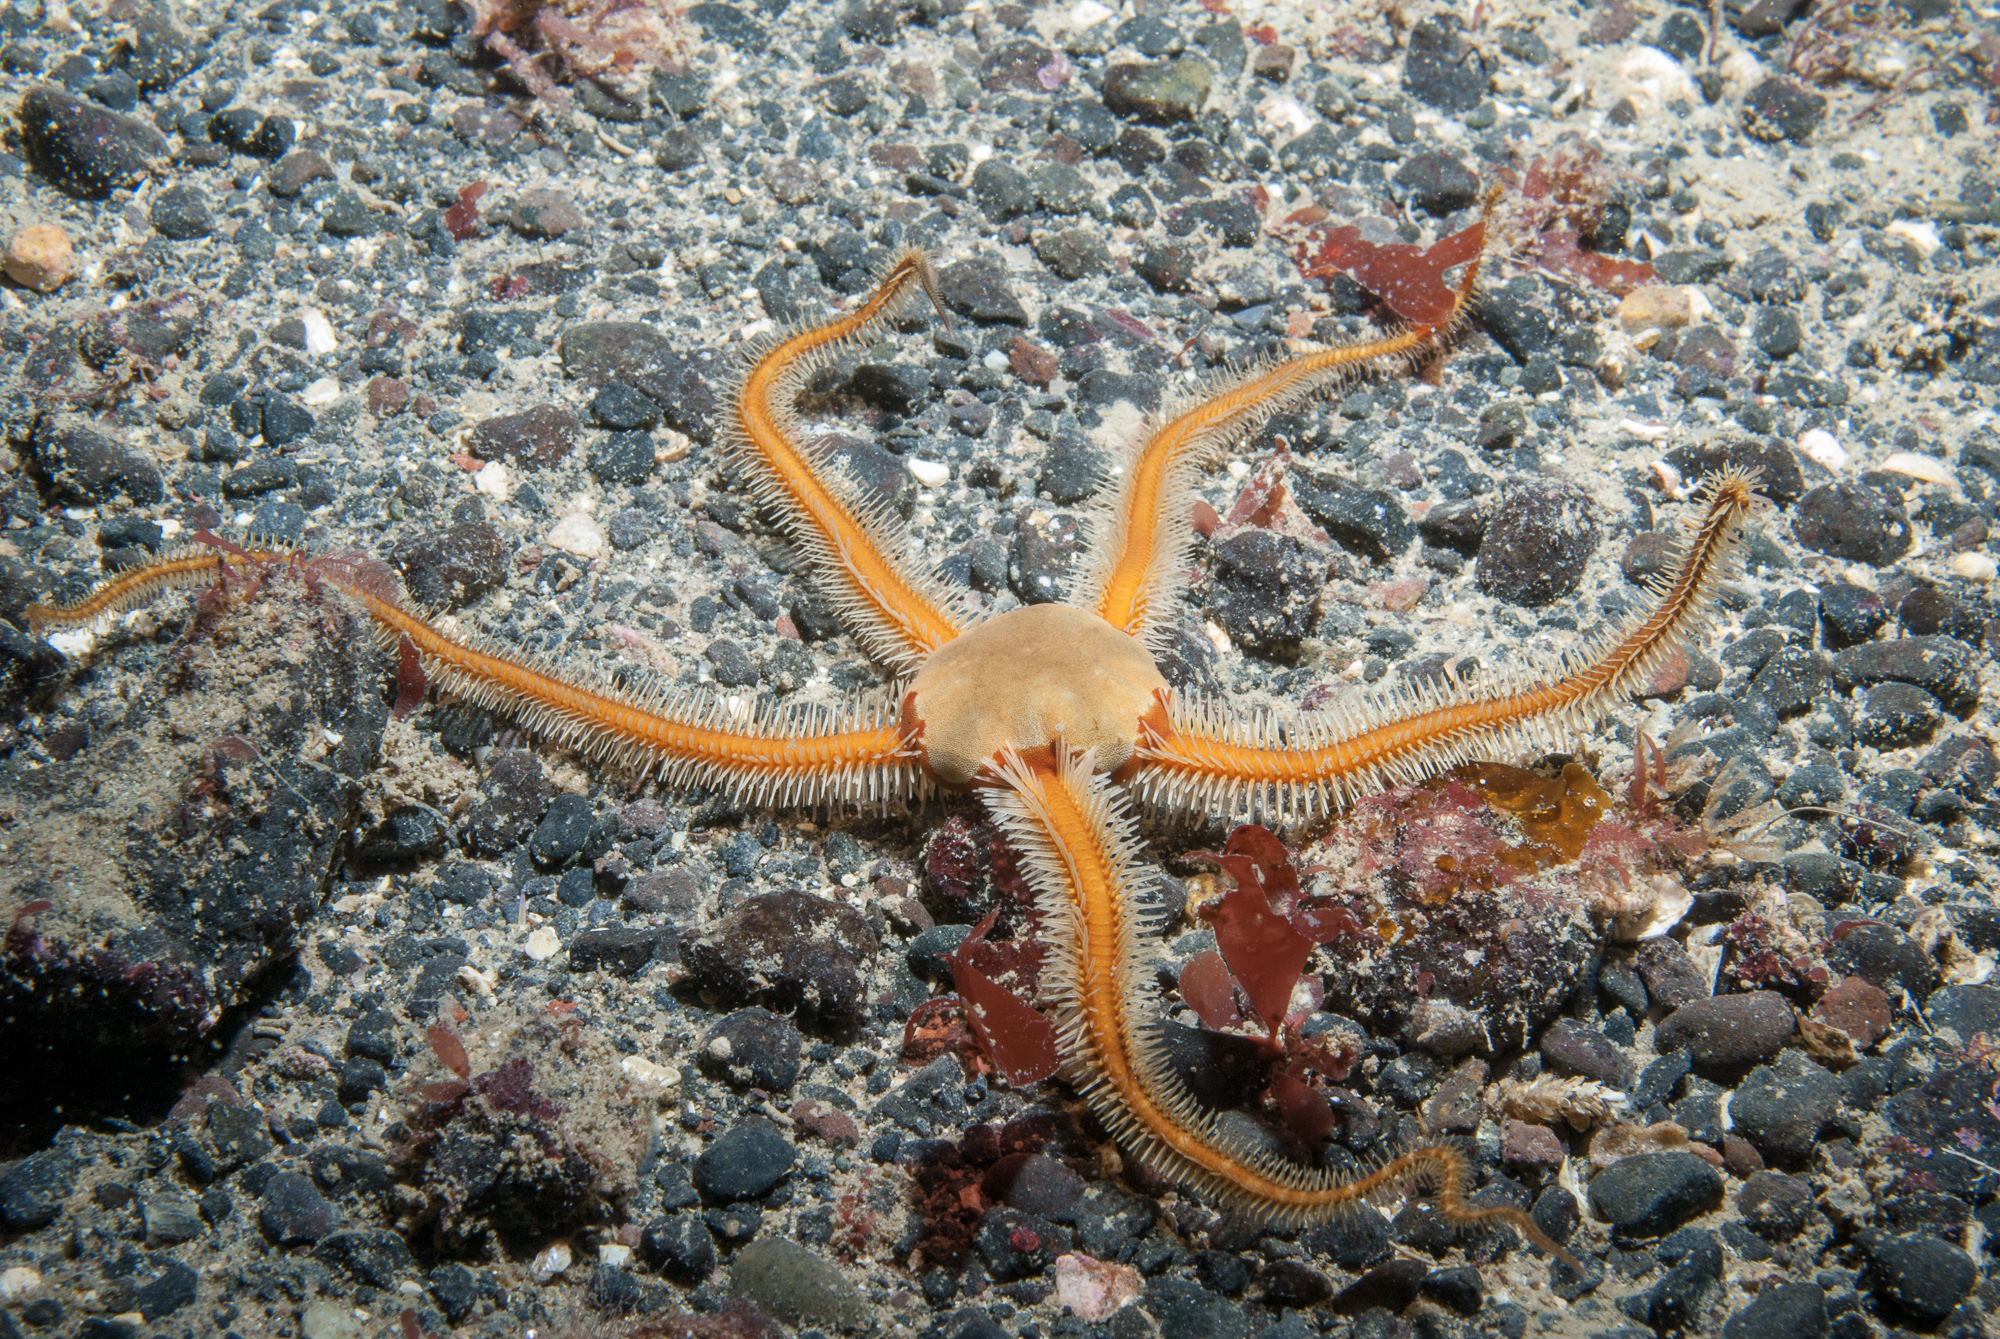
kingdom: Animalia
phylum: Echinodermata
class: Ophiuroidea
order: Ophiacanthida
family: Ophiotomidae
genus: Ophiocomina
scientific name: Ophiocomina nigra
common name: Black brittle star
